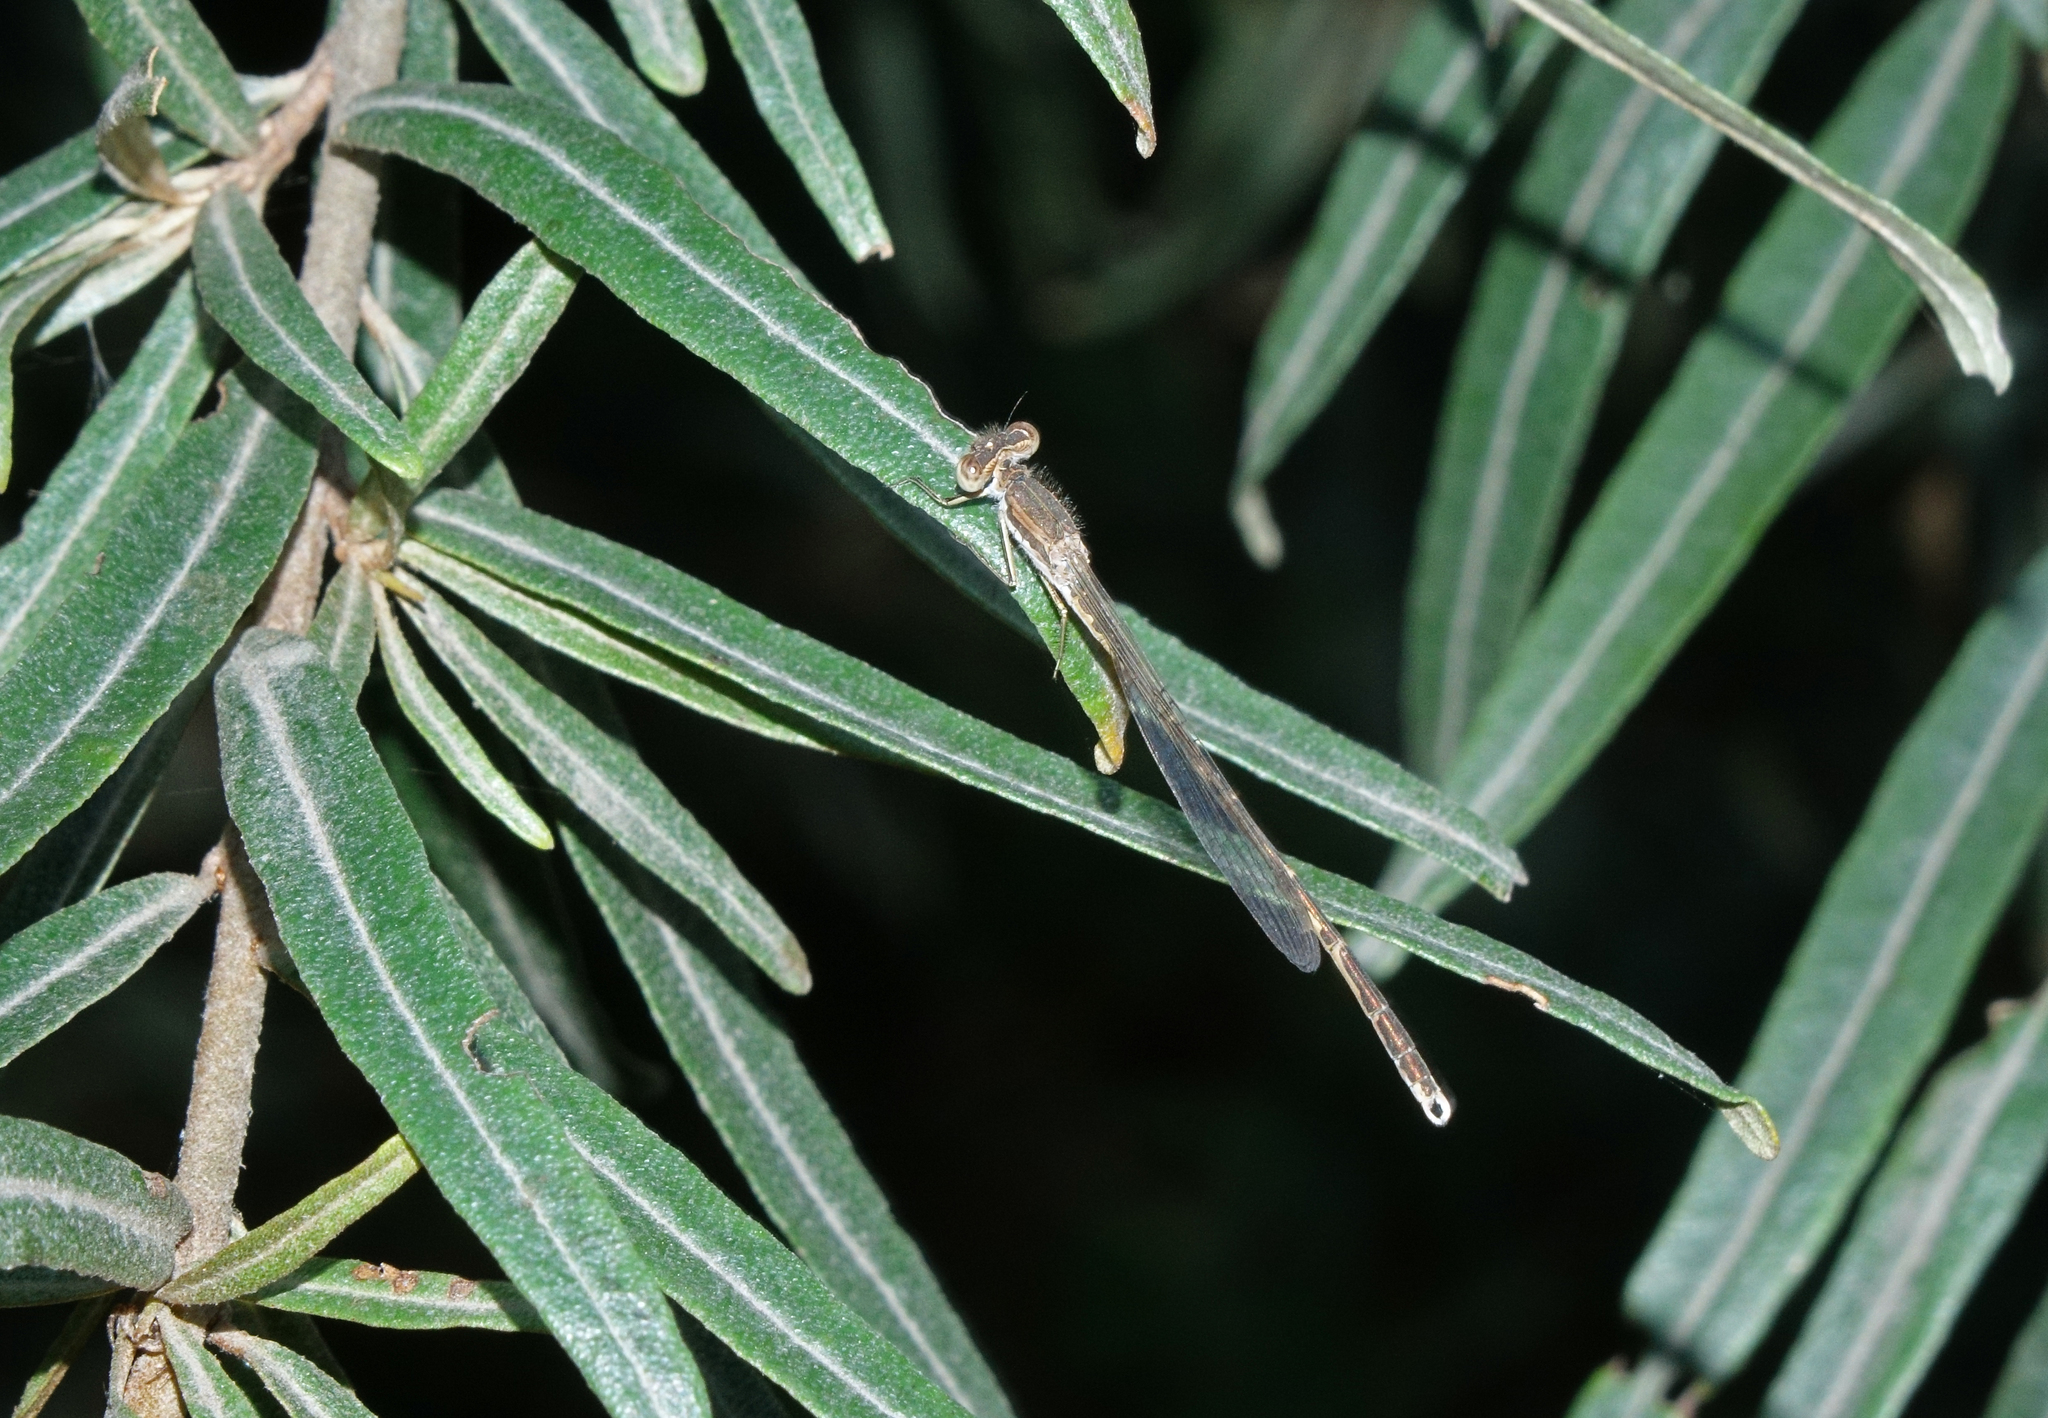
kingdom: Animalia
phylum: Arthropoda
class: Insecta
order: Odonata
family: Lestidae
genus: Sympecma
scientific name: Sympecma fusca
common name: Common winter damsel
